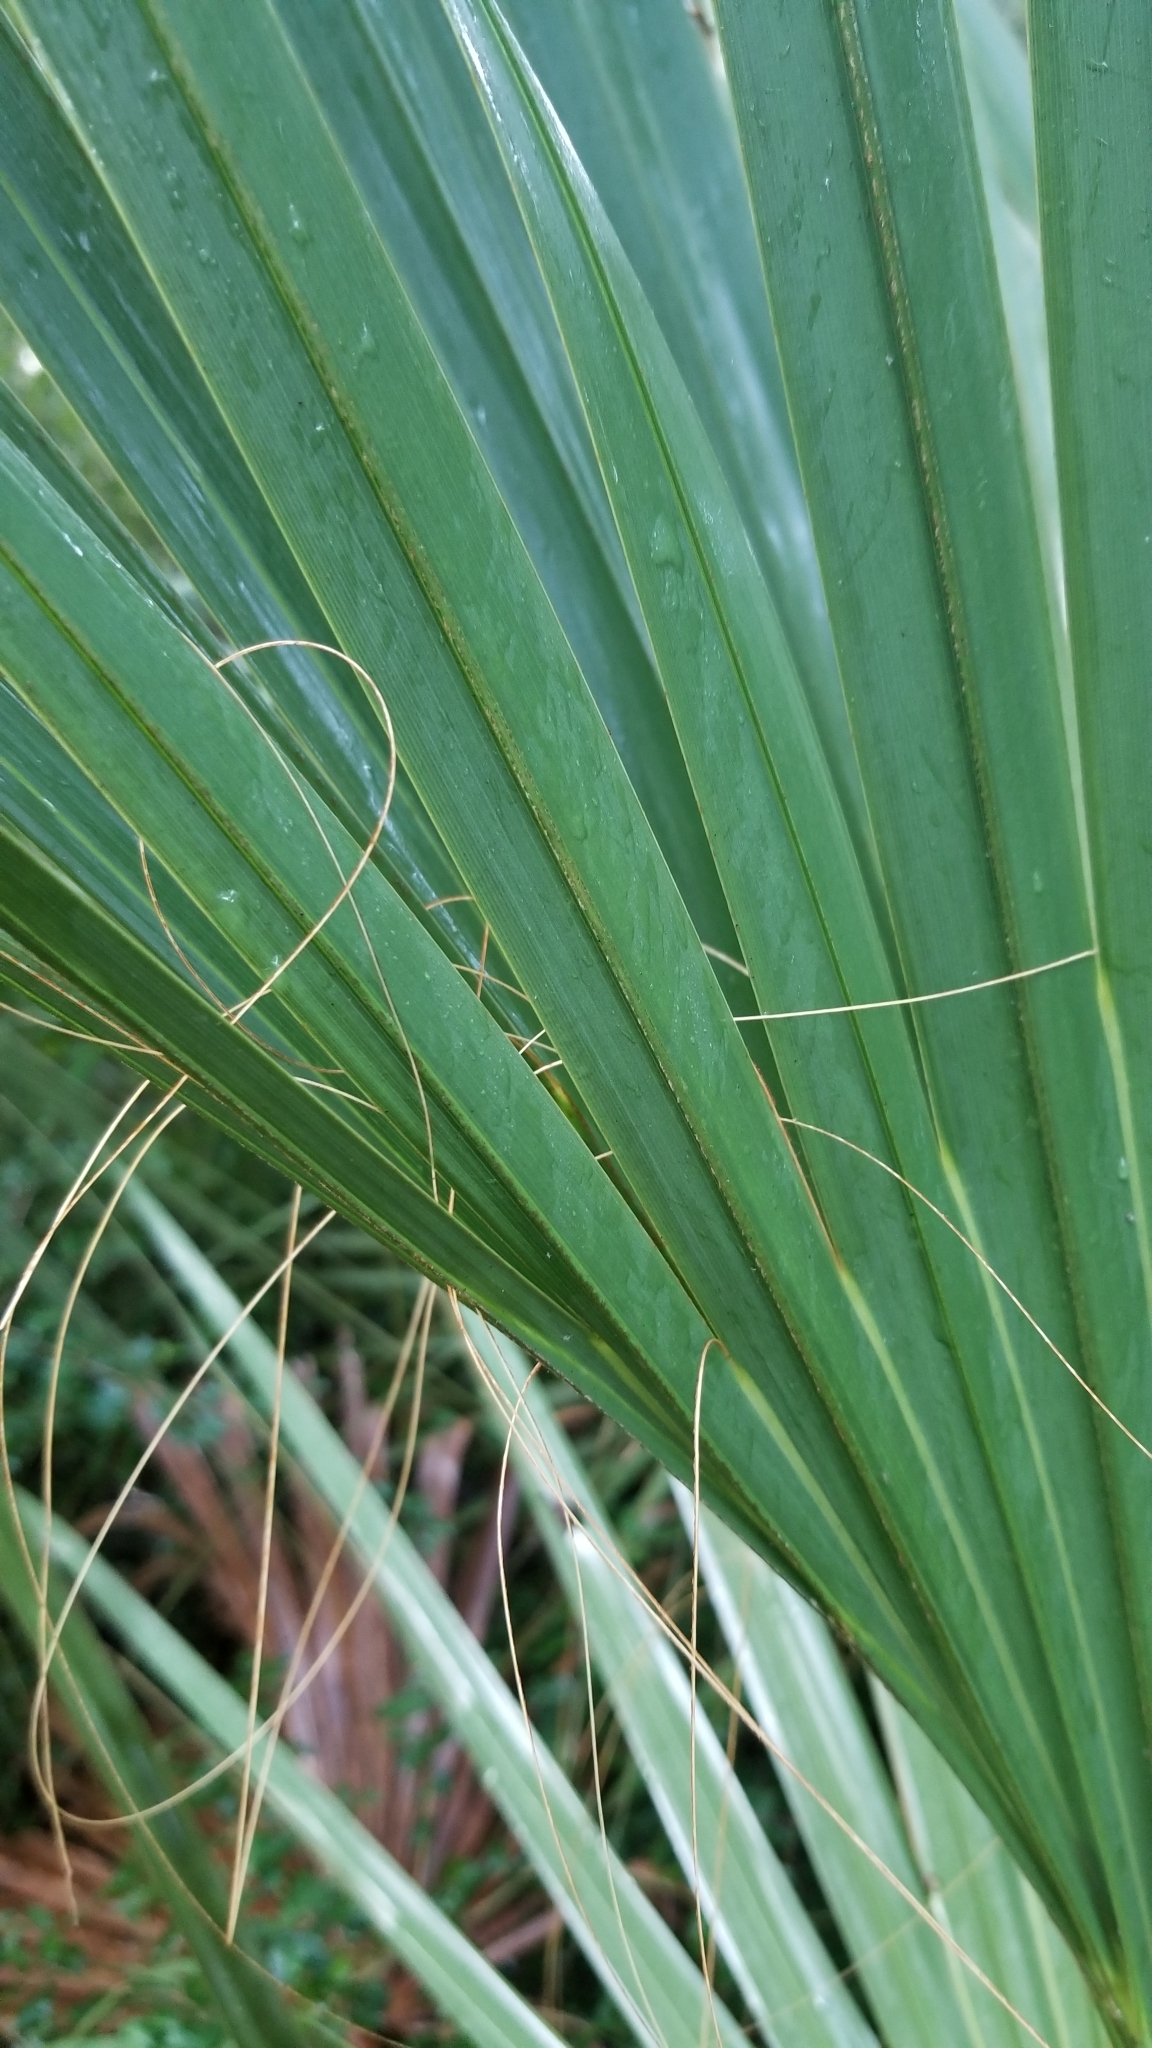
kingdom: Plantae
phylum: Tracheophyta
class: Liliopsida
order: Arecales
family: Arecaceae
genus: Sabal
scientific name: Sabal palmetto
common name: Blue palmetto
